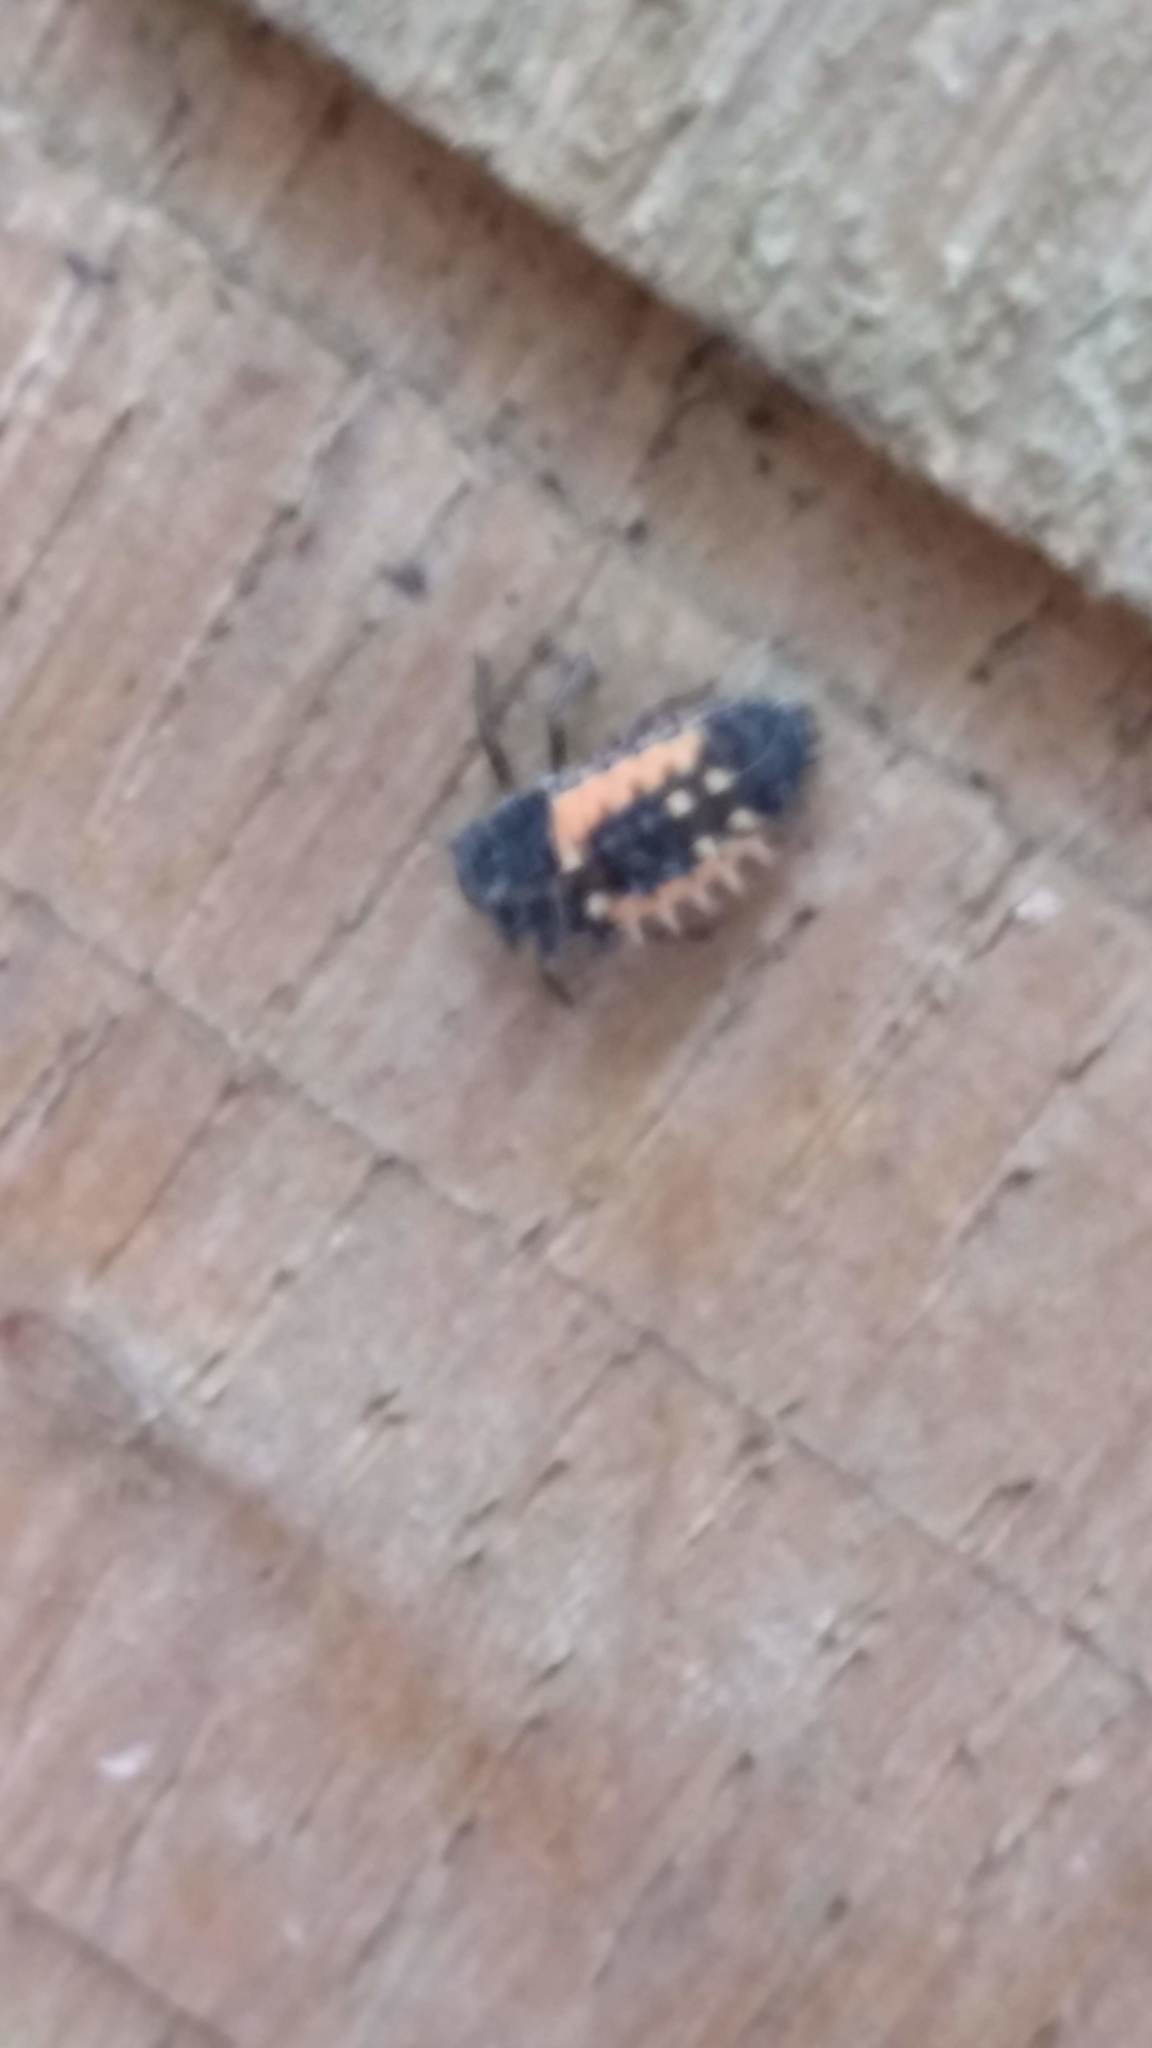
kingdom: Animalia
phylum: Arthropoda
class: Insecta
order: Coleoptera
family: Coccinellidae
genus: Harmonia
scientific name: Harmonia axyridis
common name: Harlequin ladybird
